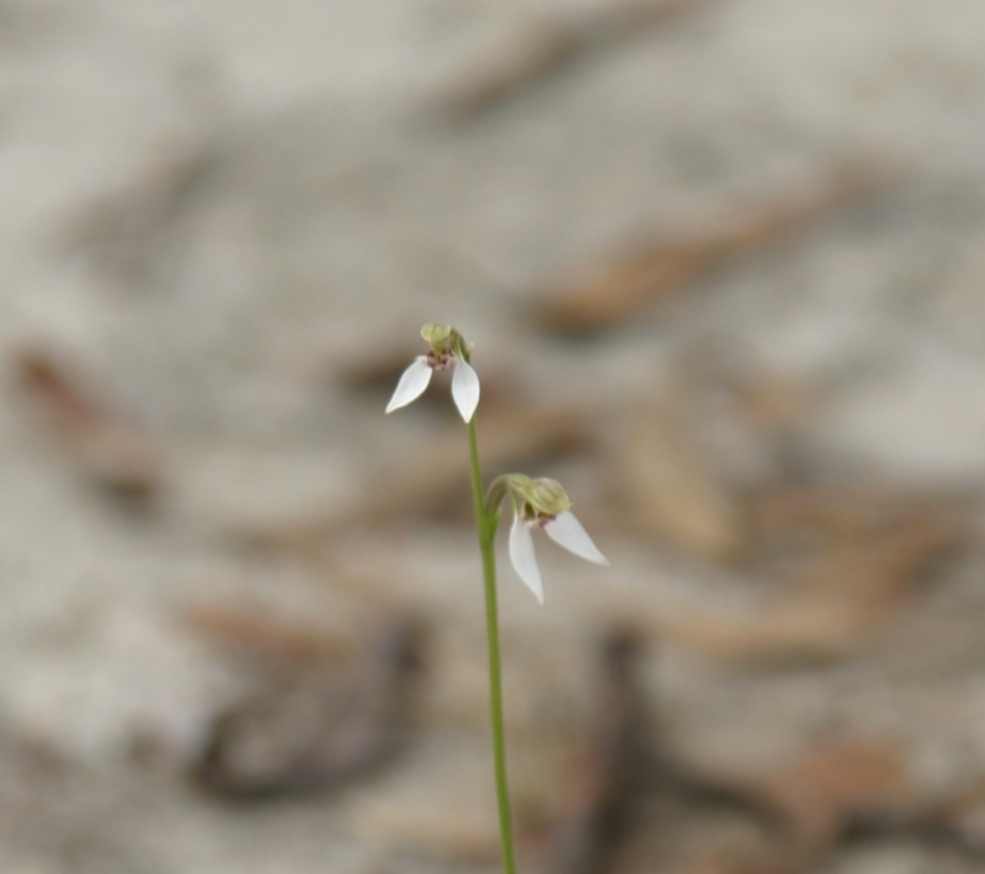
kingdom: Plantae
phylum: Tracheophyta
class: Liliopsida
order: Asparagales
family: Orchidaceae
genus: Eriochilus
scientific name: Eriochilus dilatatus
